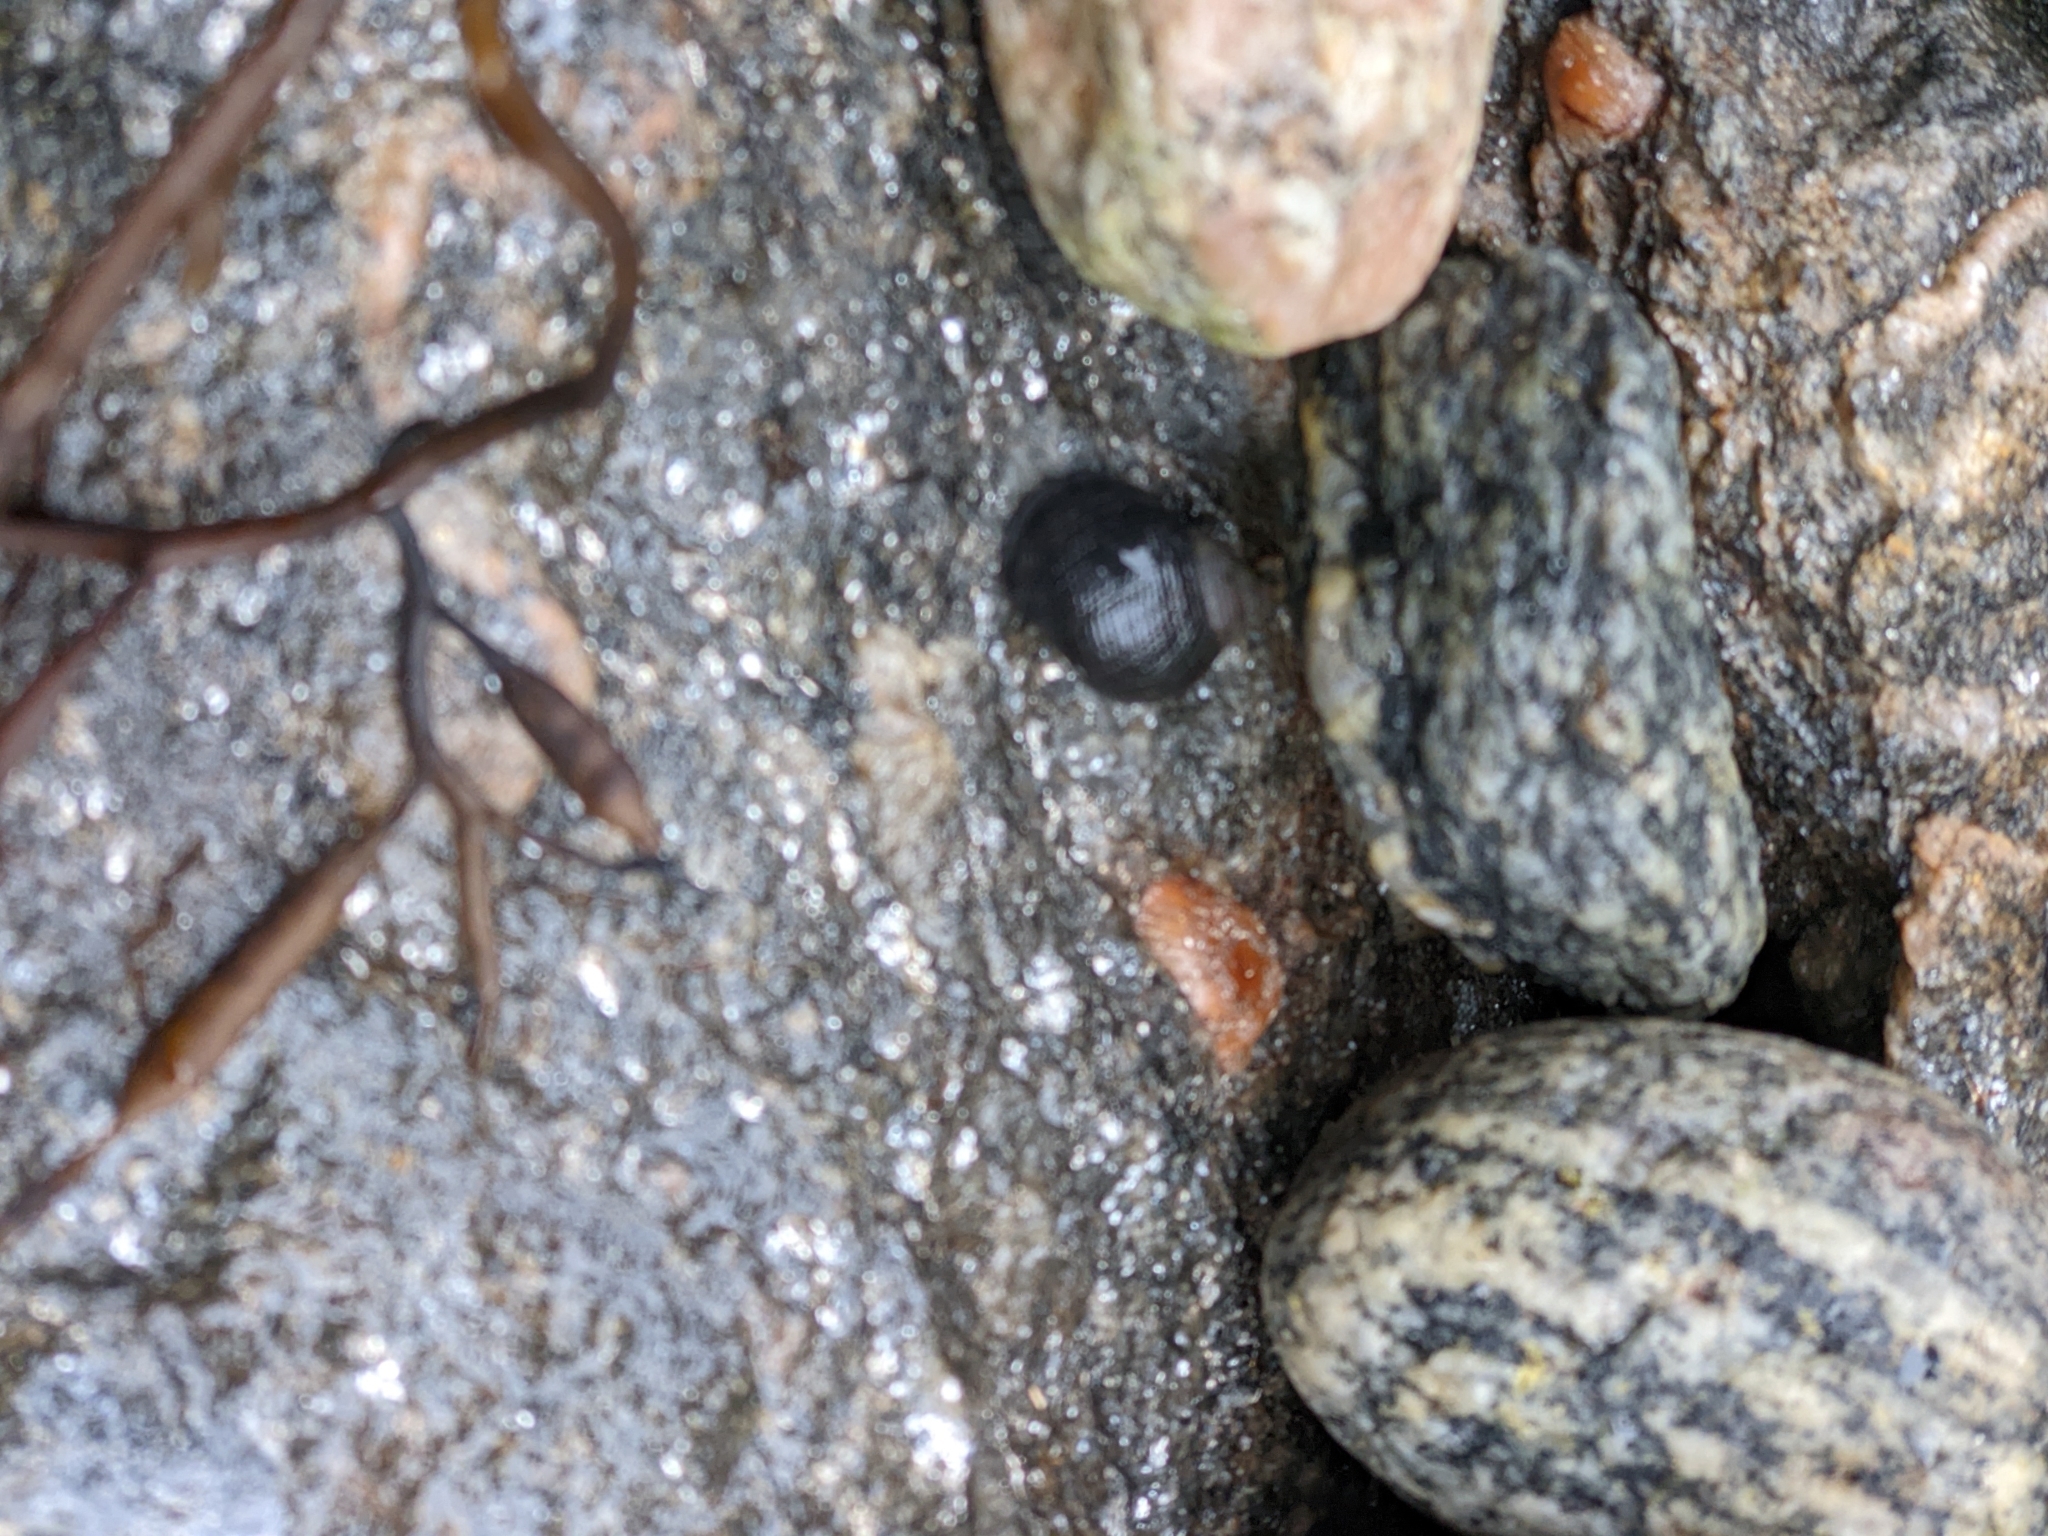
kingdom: Animalia
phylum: Mollusca
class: Gastropoda
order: Littorinimorpha
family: Littorinidae
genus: Littorina
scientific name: Littorina littorea
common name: Common periwinkle
